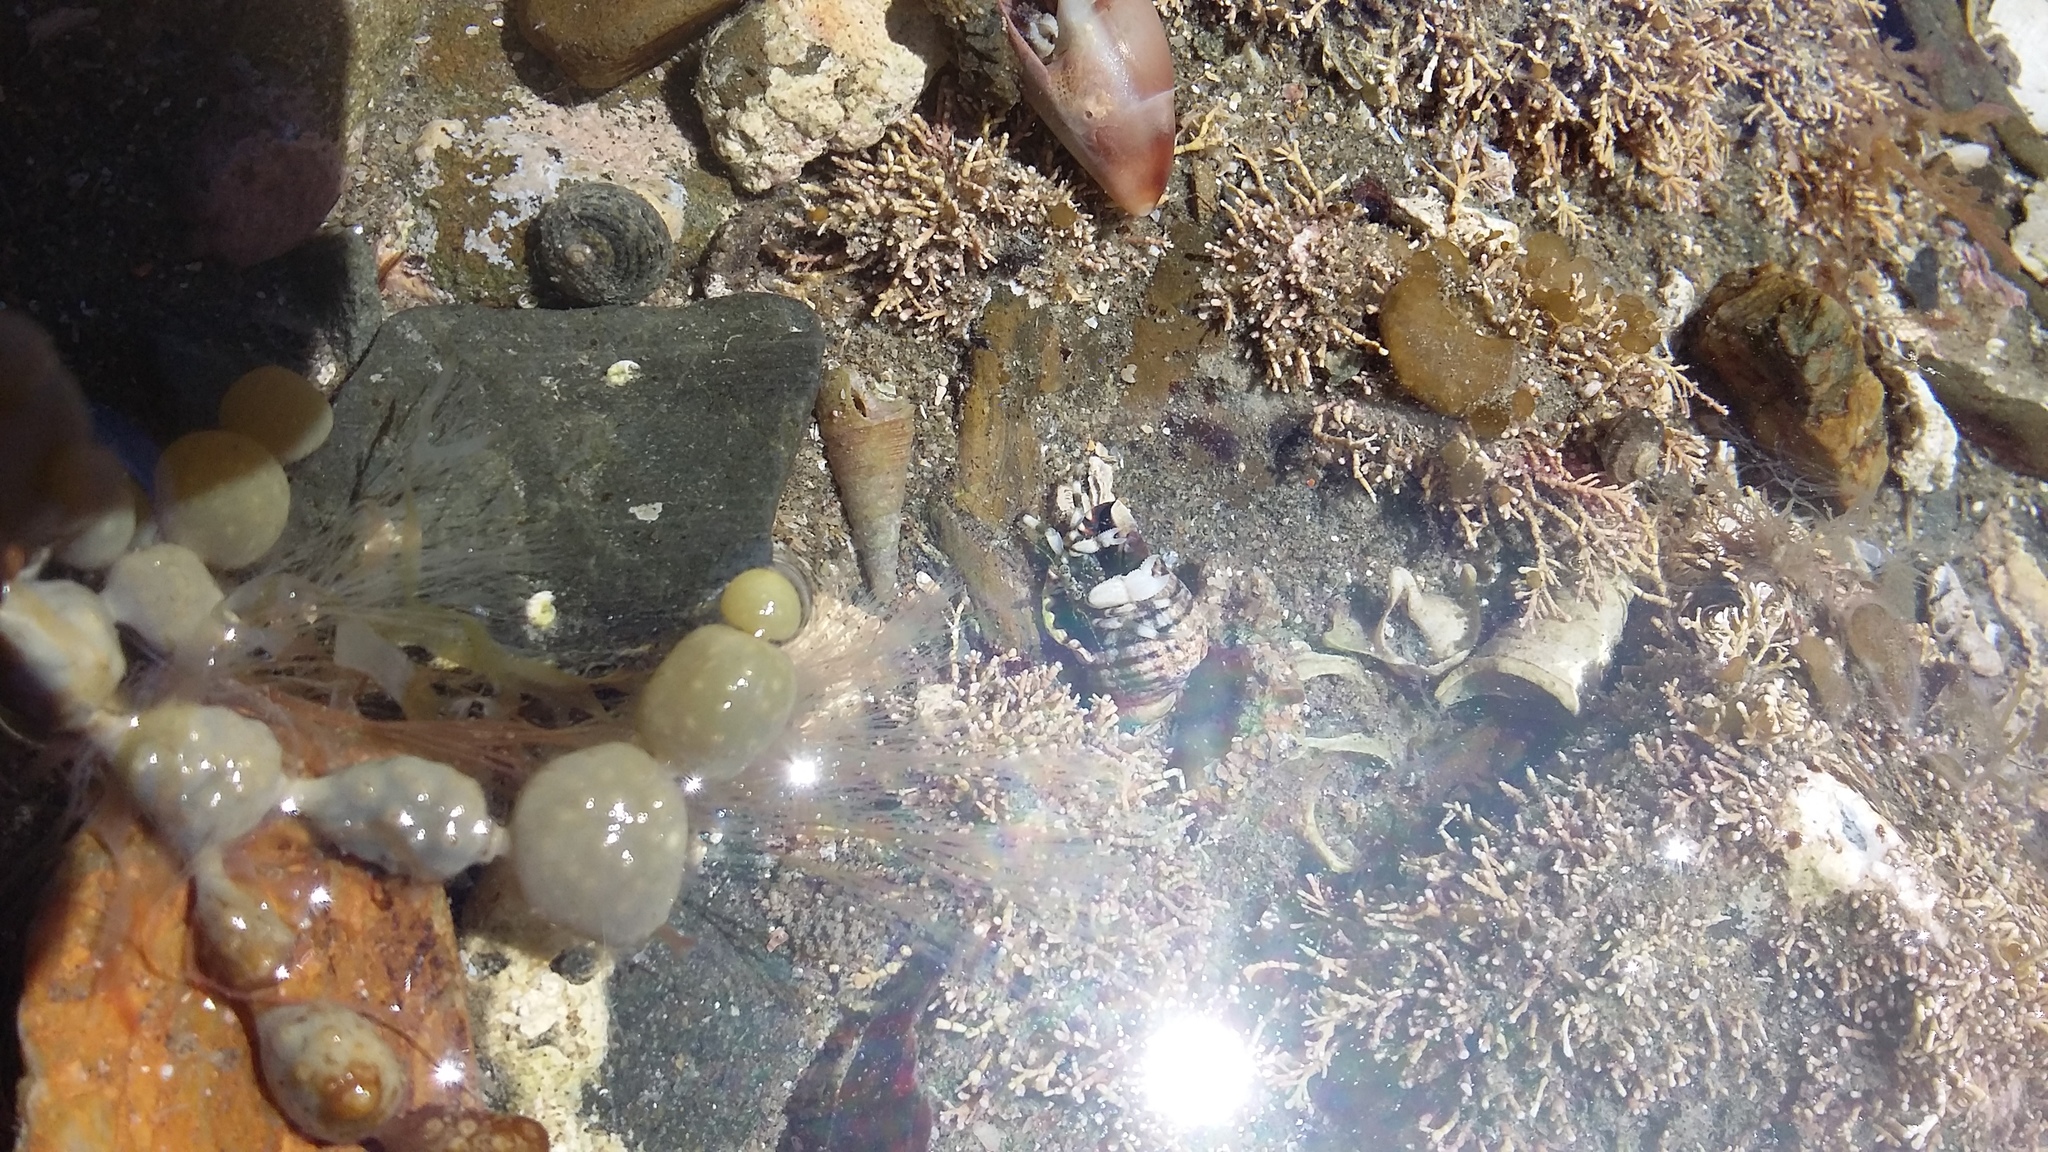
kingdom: Animalia
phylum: Arthropoda
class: Malacostraca
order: Decapoda
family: Paguridae
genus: Pagurus
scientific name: Pagurus novizealandiae
